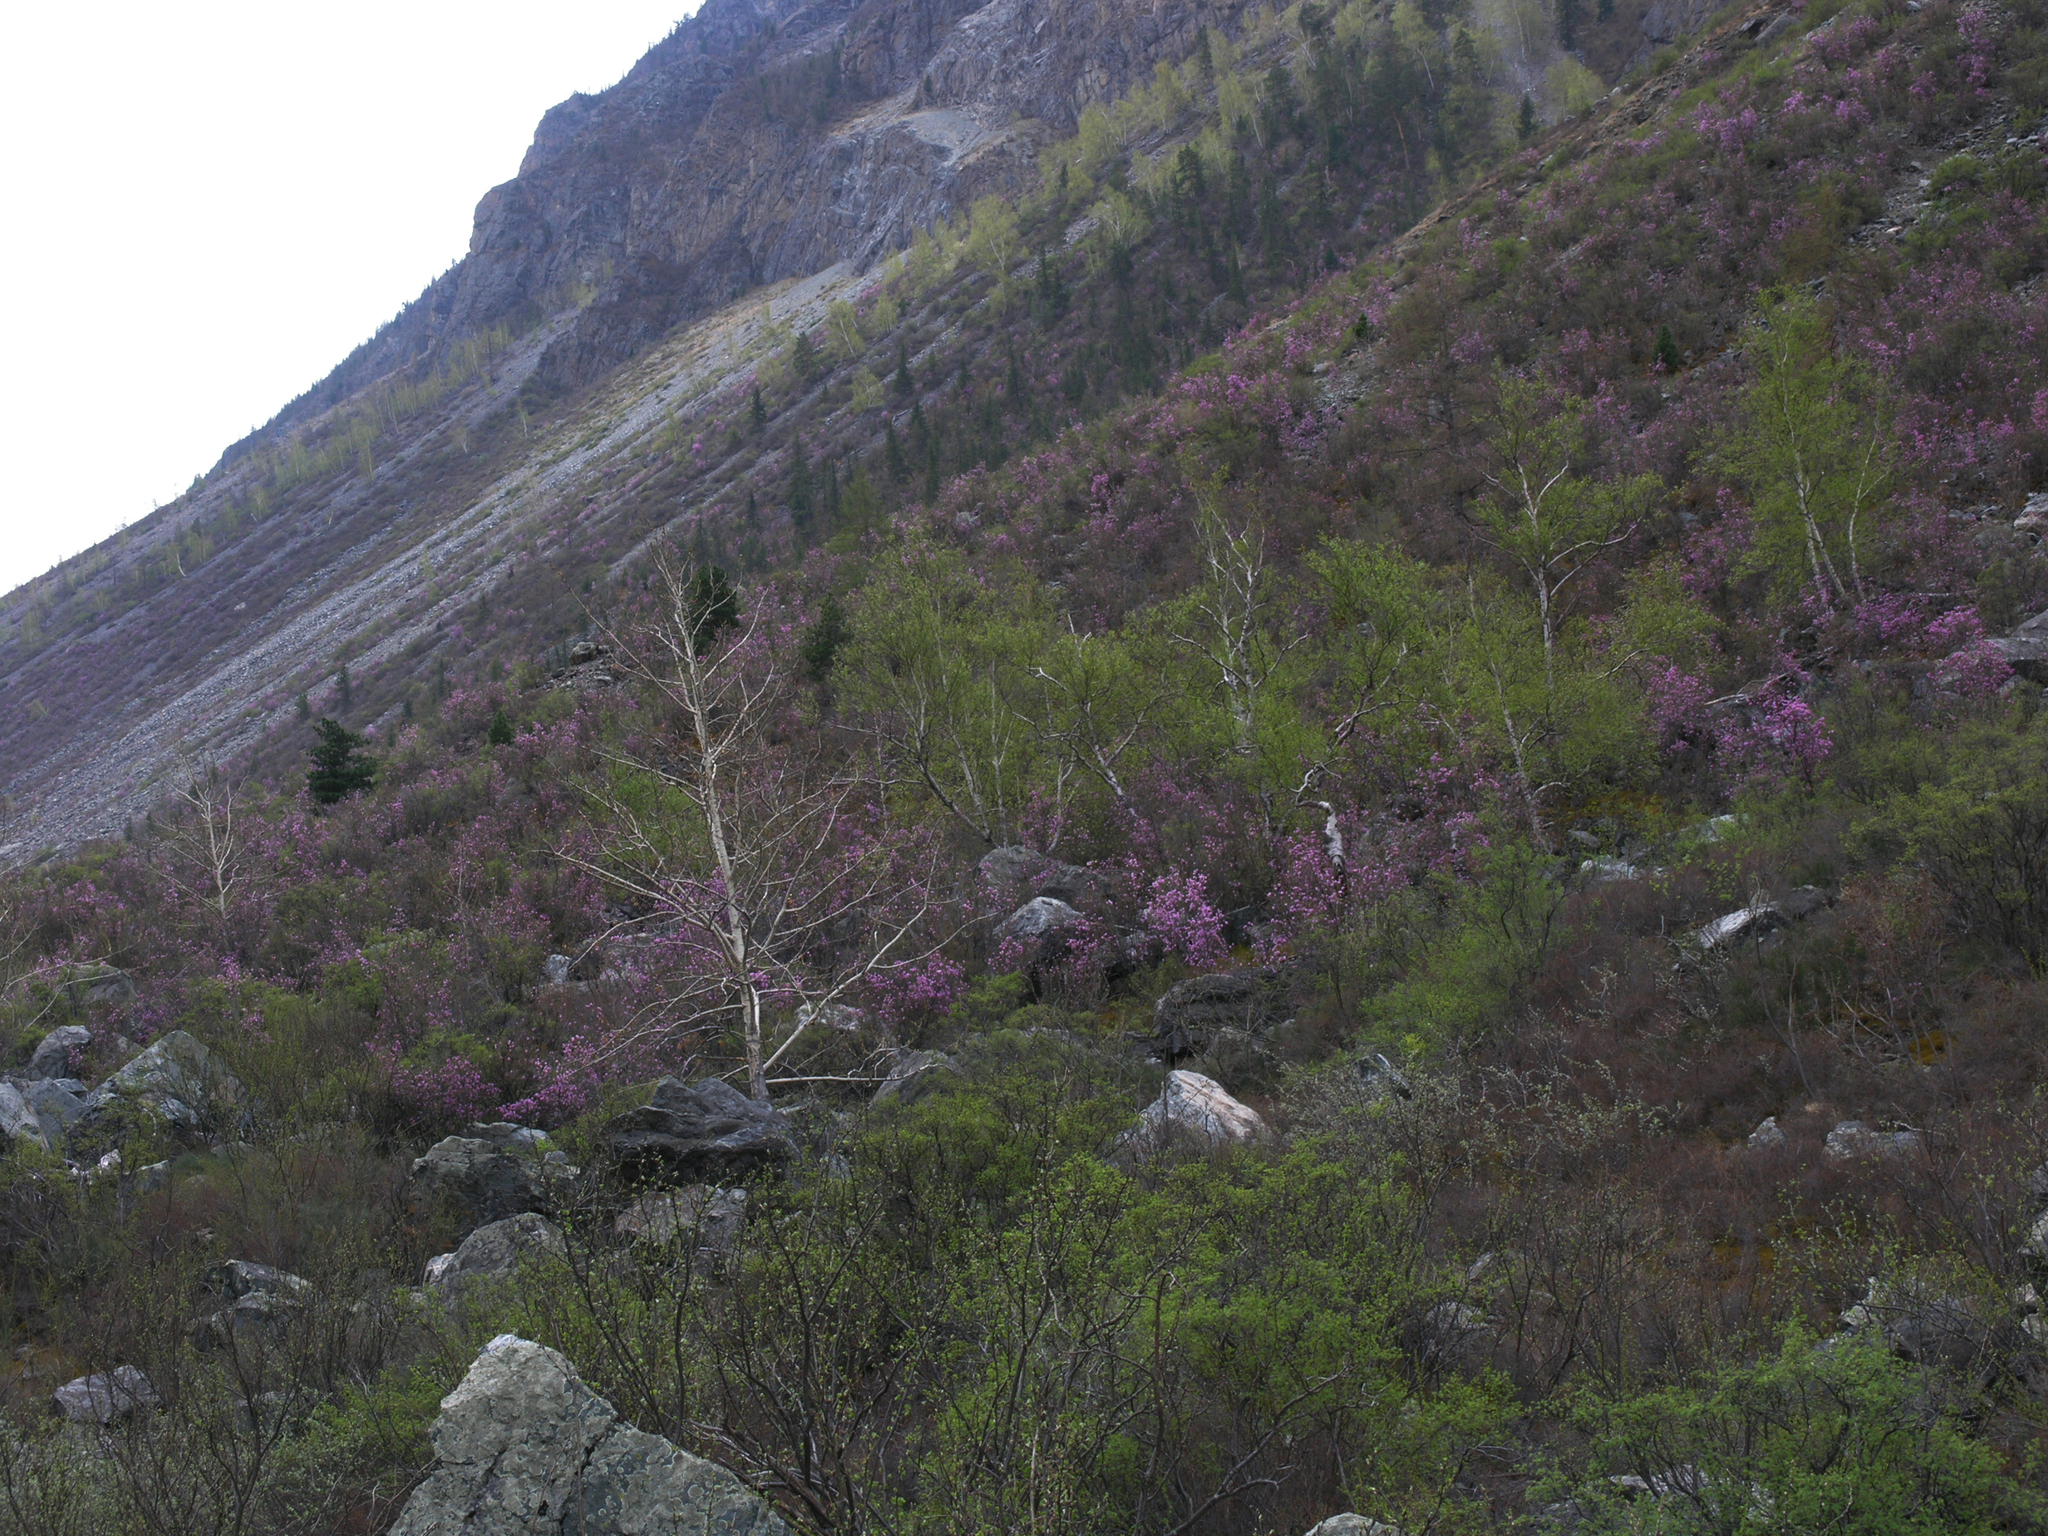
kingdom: Plantae
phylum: Tracheophyta
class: Magnoliopsida
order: Ericales
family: Ericaceae
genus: Rhododendron
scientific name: Rhododendron dauricum
